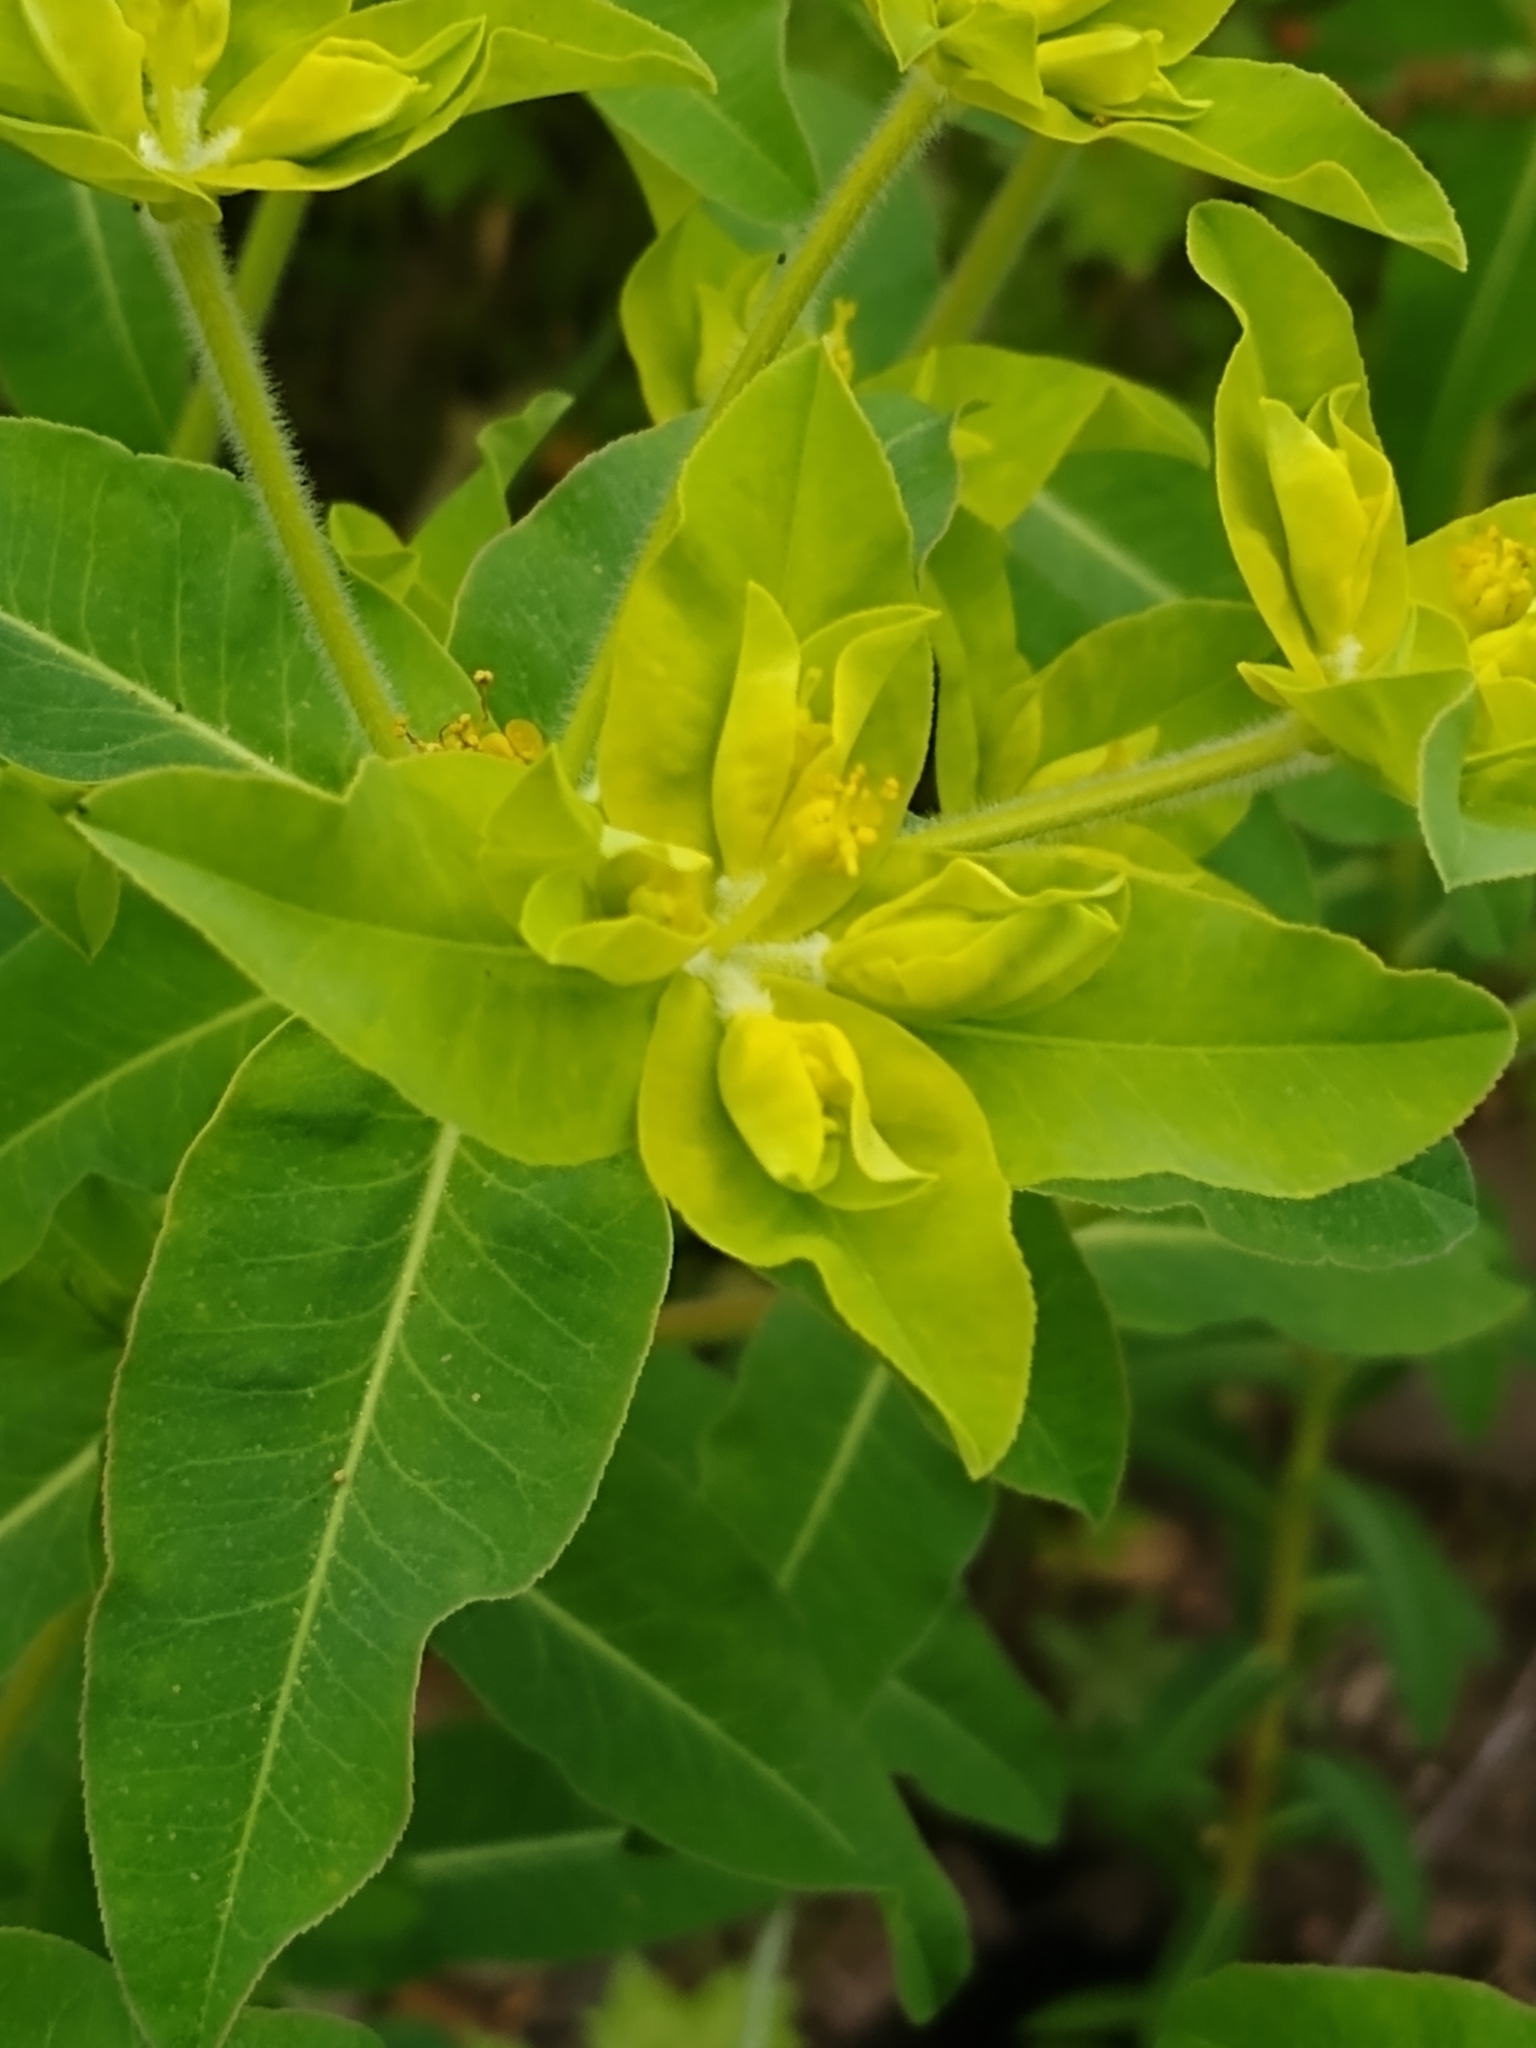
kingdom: Plantae
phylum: Tracheophyta
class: Magnoliopsida
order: Malpighiales
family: Euphorbiaceae
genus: Euphorbia
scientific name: Euphorbia oblongata
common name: Balkan spurge
